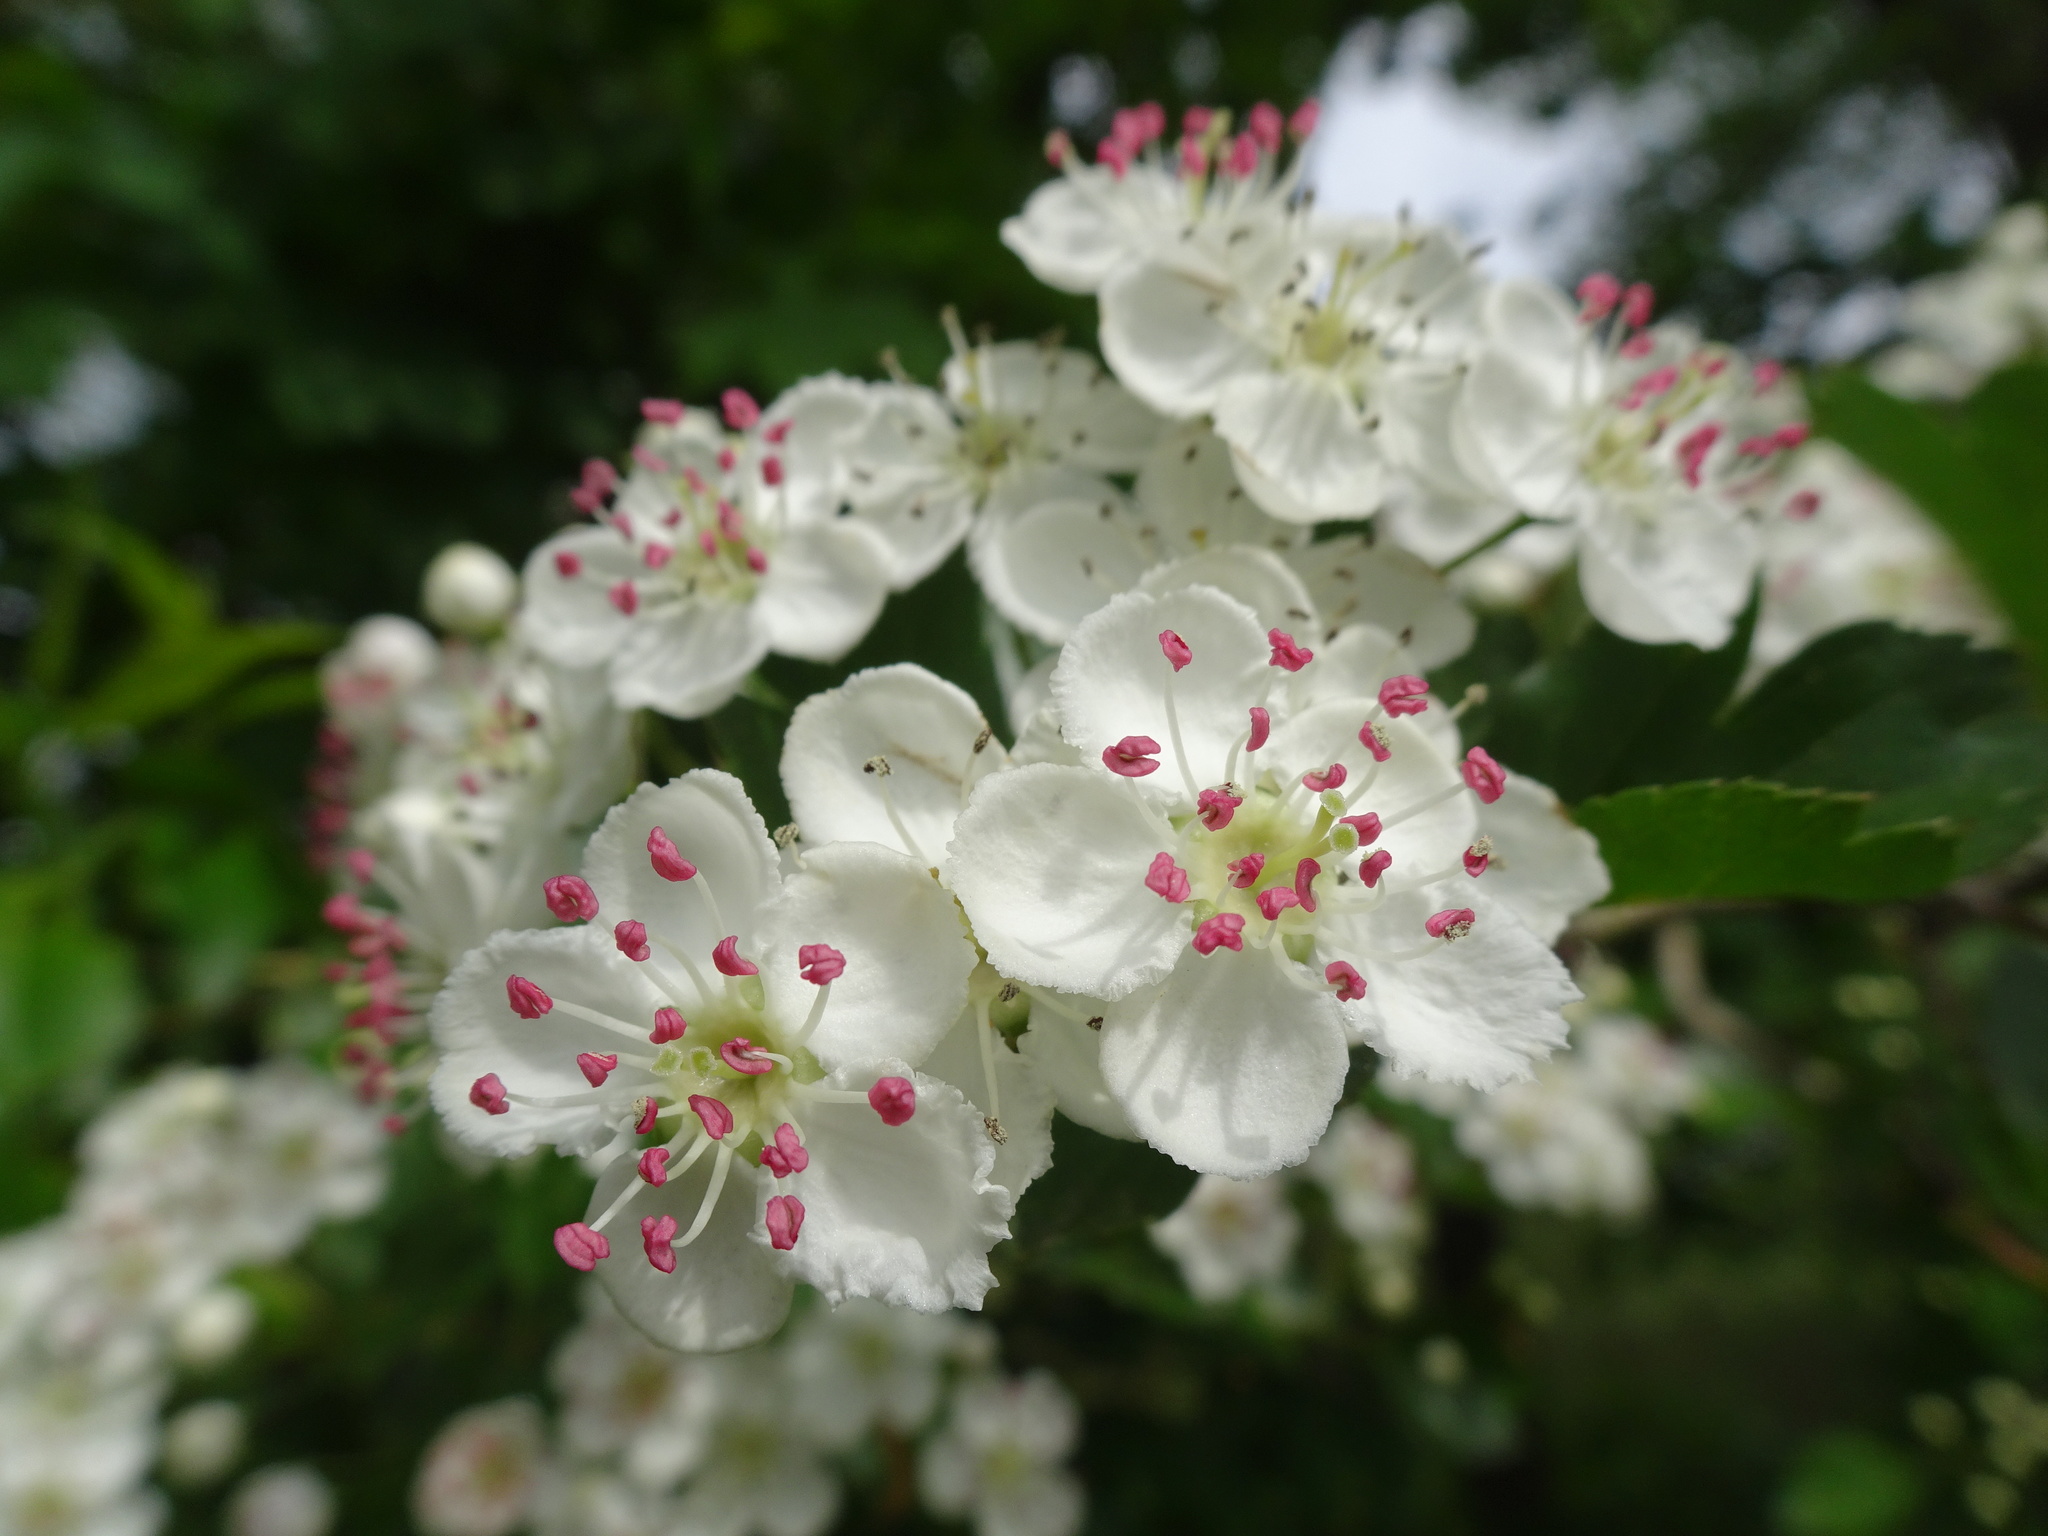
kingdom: Plantae
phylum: Tracheophyta
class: Magnoliopsida
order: Rosales
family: Rosaceae
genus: Crataegus
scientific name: Crataegus laevigata
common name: Midland hawthorn
